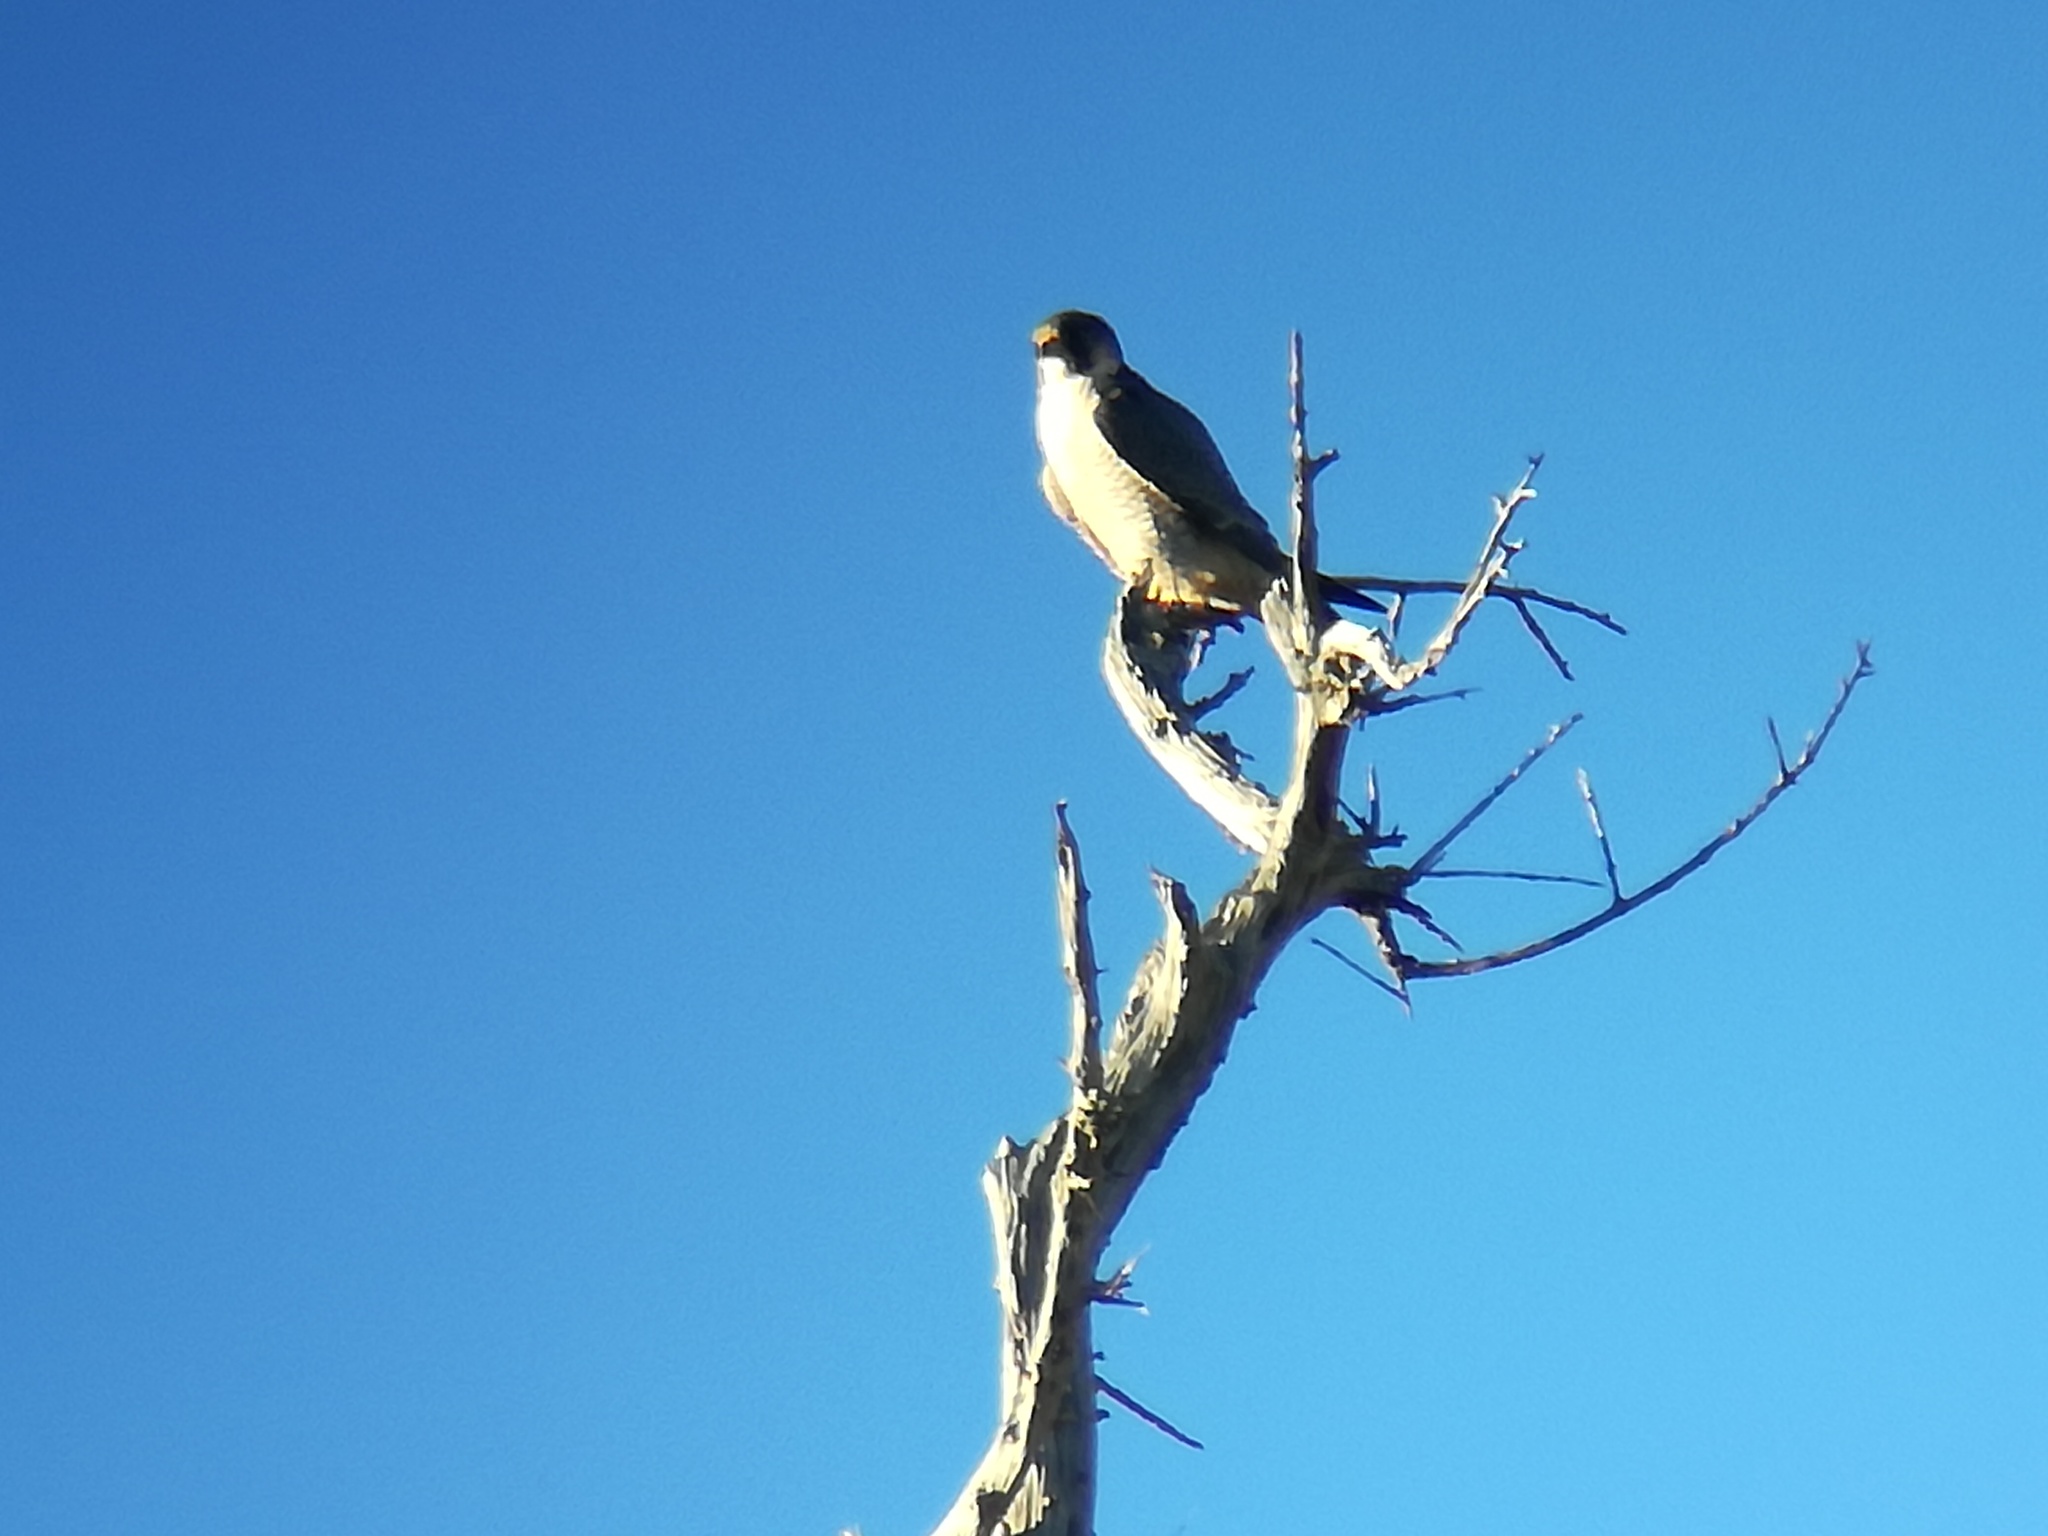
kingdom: Animalia
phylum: Chordata
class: Aves
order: Falconiformes
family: Falconidae
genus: Falco
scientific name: Falco peregrinus
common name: Peregrine falcon
